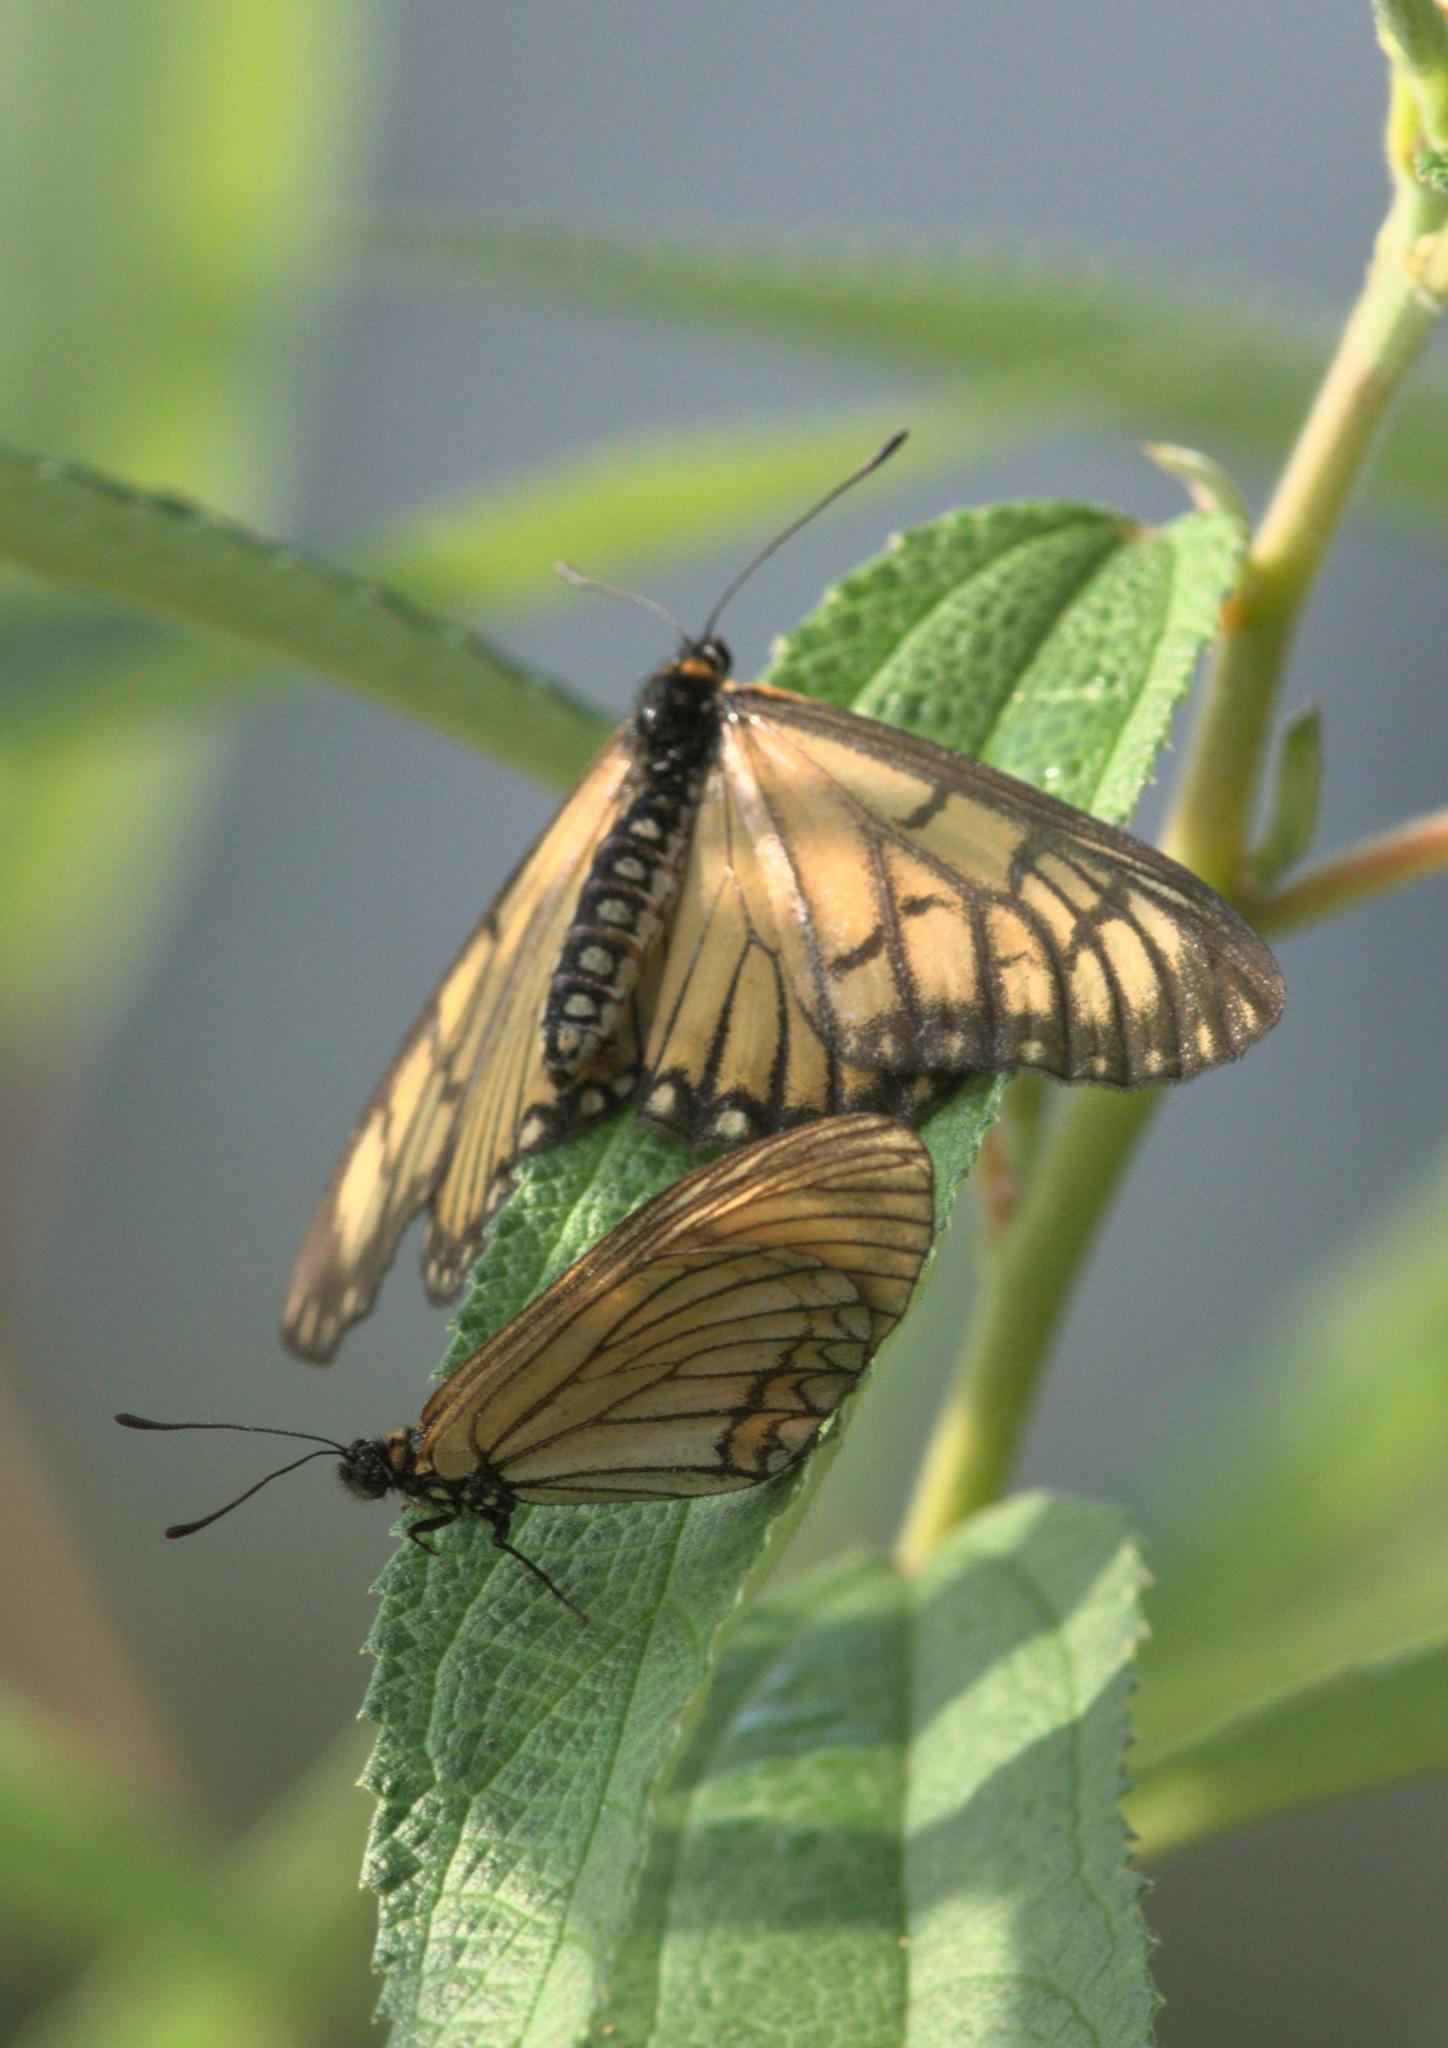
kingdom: Animalia
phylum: Arthropoda
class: Insecta
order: Lepidoptera
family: Nymphalidae
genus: Acraea
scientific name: Acraea Telchinia issoria
